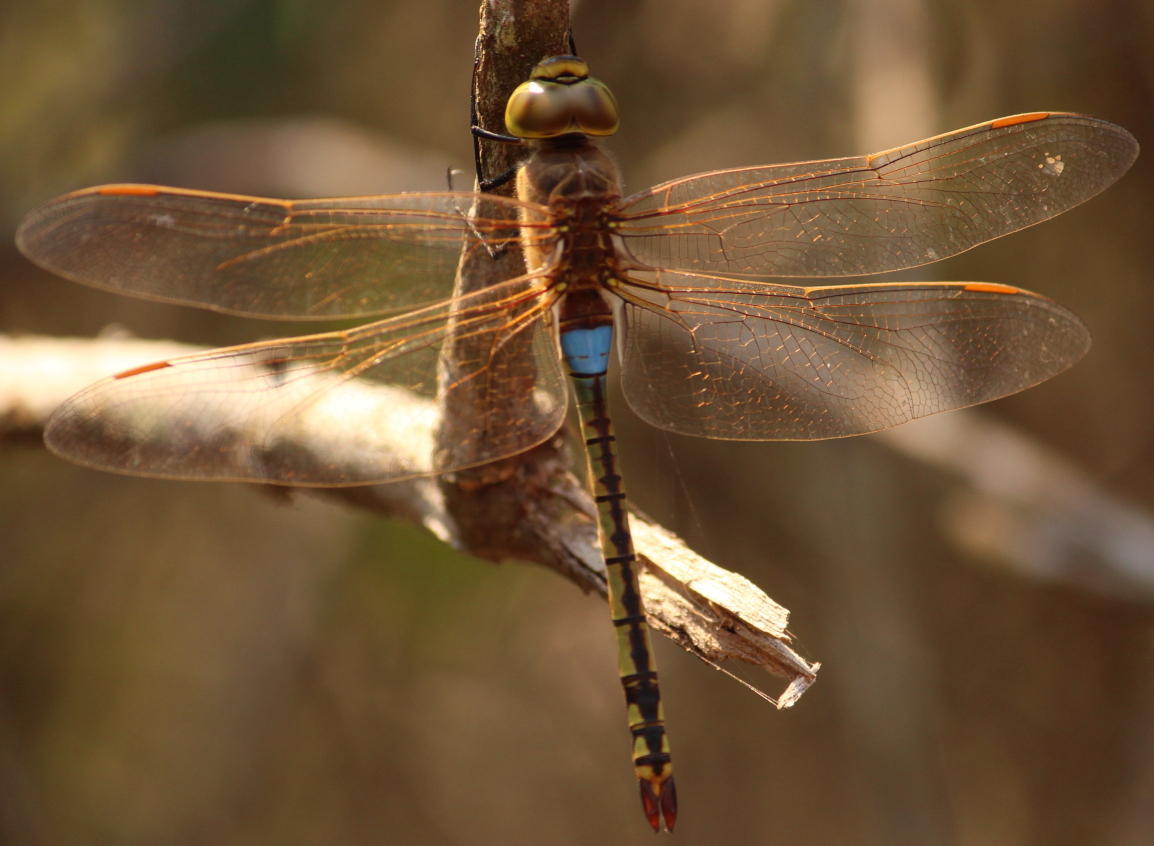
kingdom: Animalia
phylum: Arthropoda
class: Insecta
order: Odonata
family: Aeshnidae
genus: Anax
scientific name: Anax ephippiger
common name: Vagrant emperor
